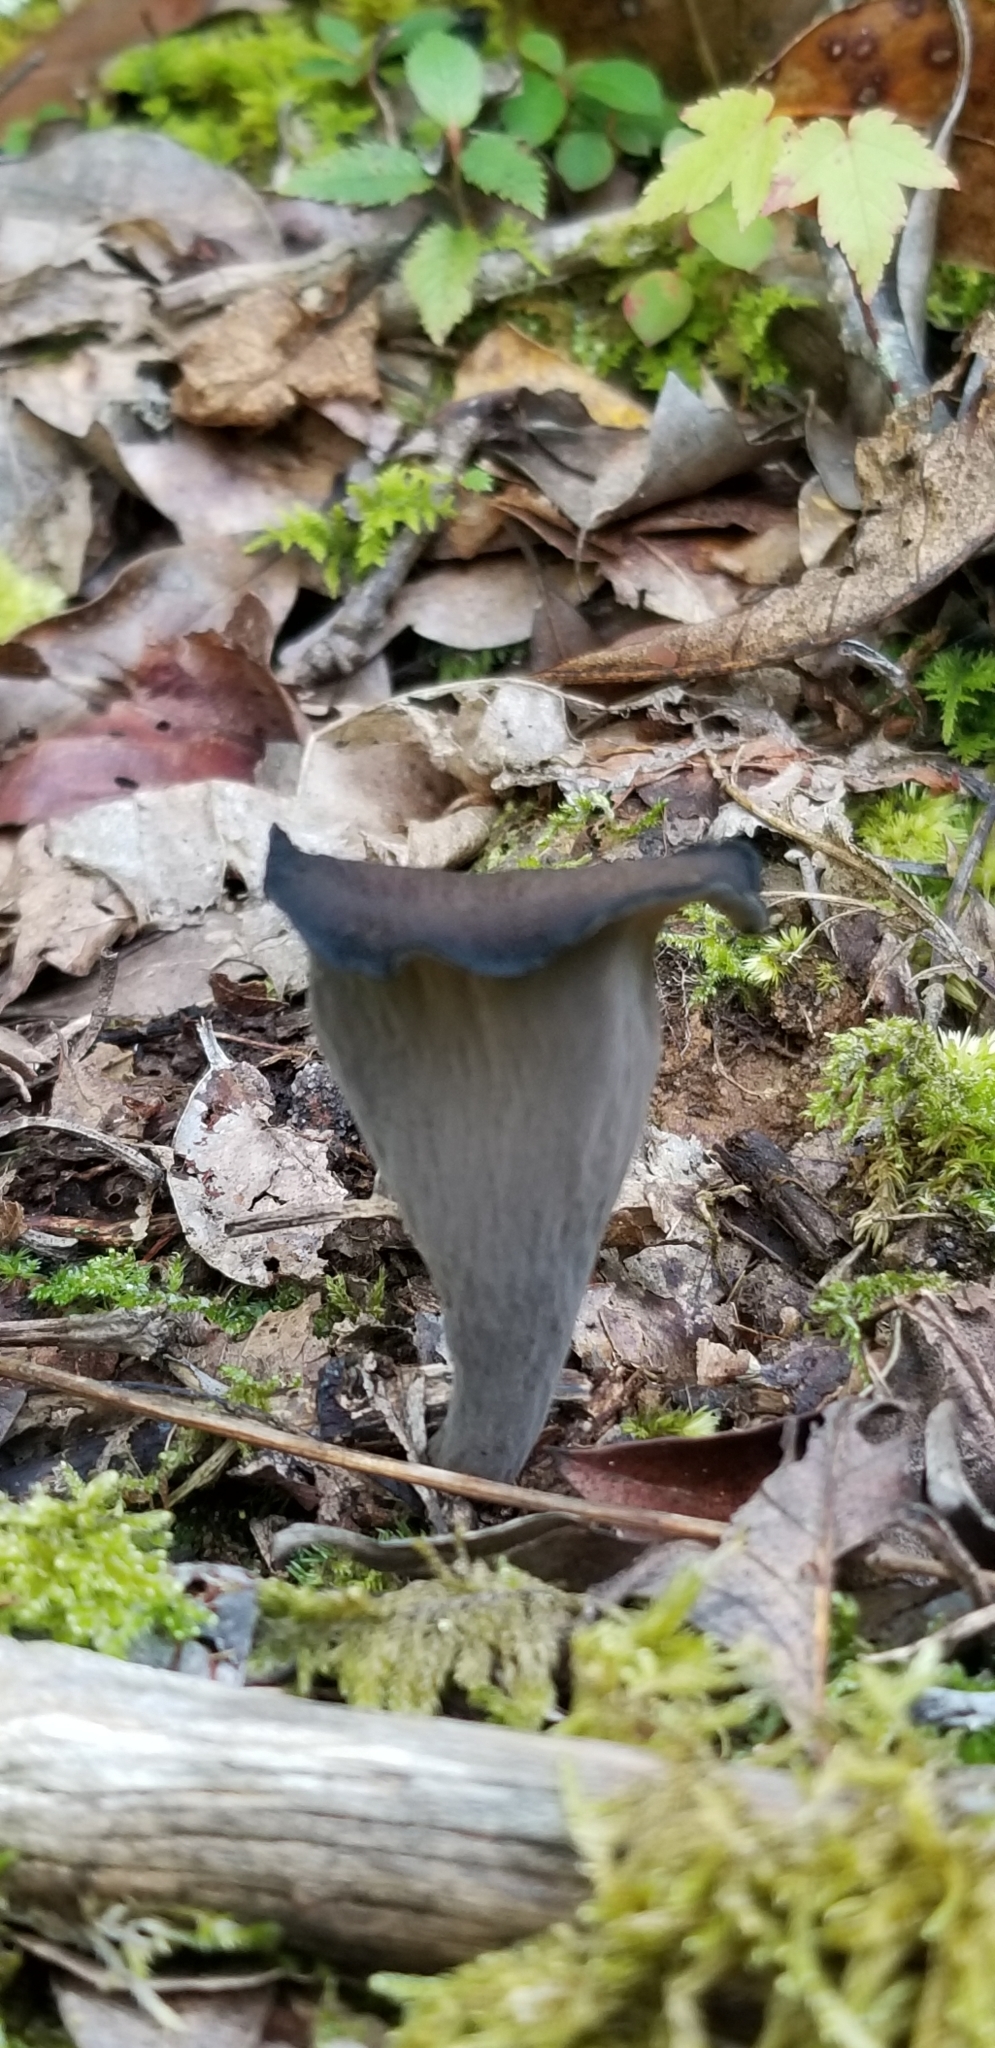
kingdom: Fungi
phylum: Basidiomycota
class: Agaricomycetes
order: Cantharellales
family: Hydnaceae
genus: Craterellus
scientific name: Craterellus cornucopioides
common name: Horn of plenty
